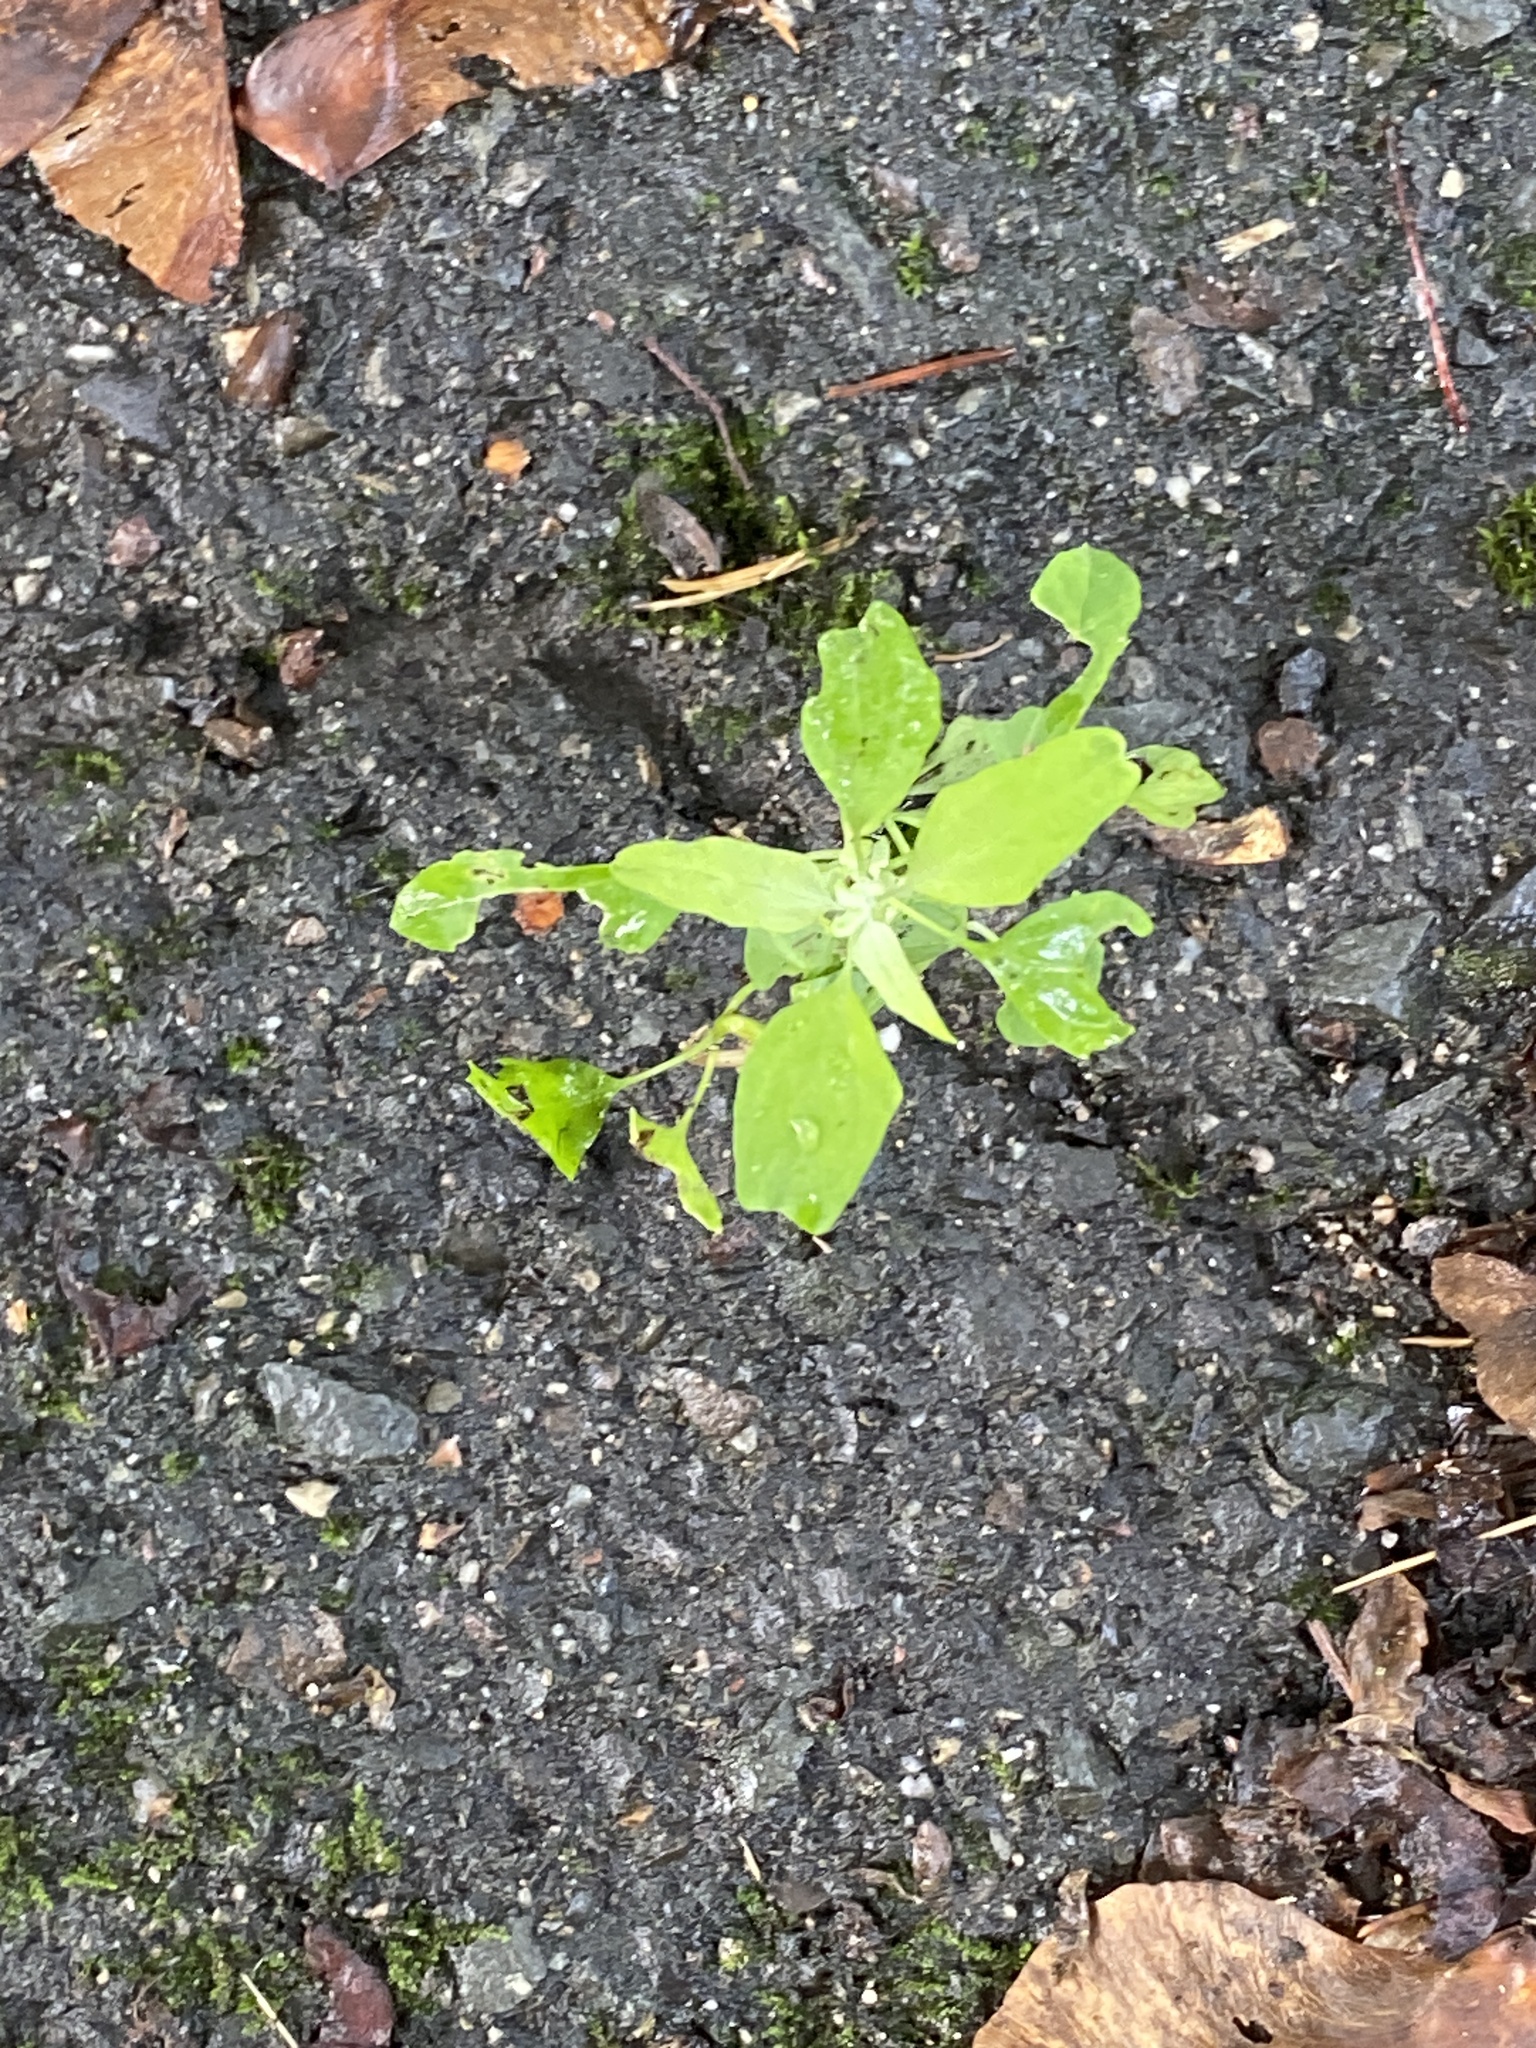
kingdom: Plantae
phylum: Tracheophyta
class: Magnoliopsida
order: Caryophyllales
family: Amaranthaceae
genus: Chenopodium
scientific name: Chenopodium album
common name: Fat-hen
